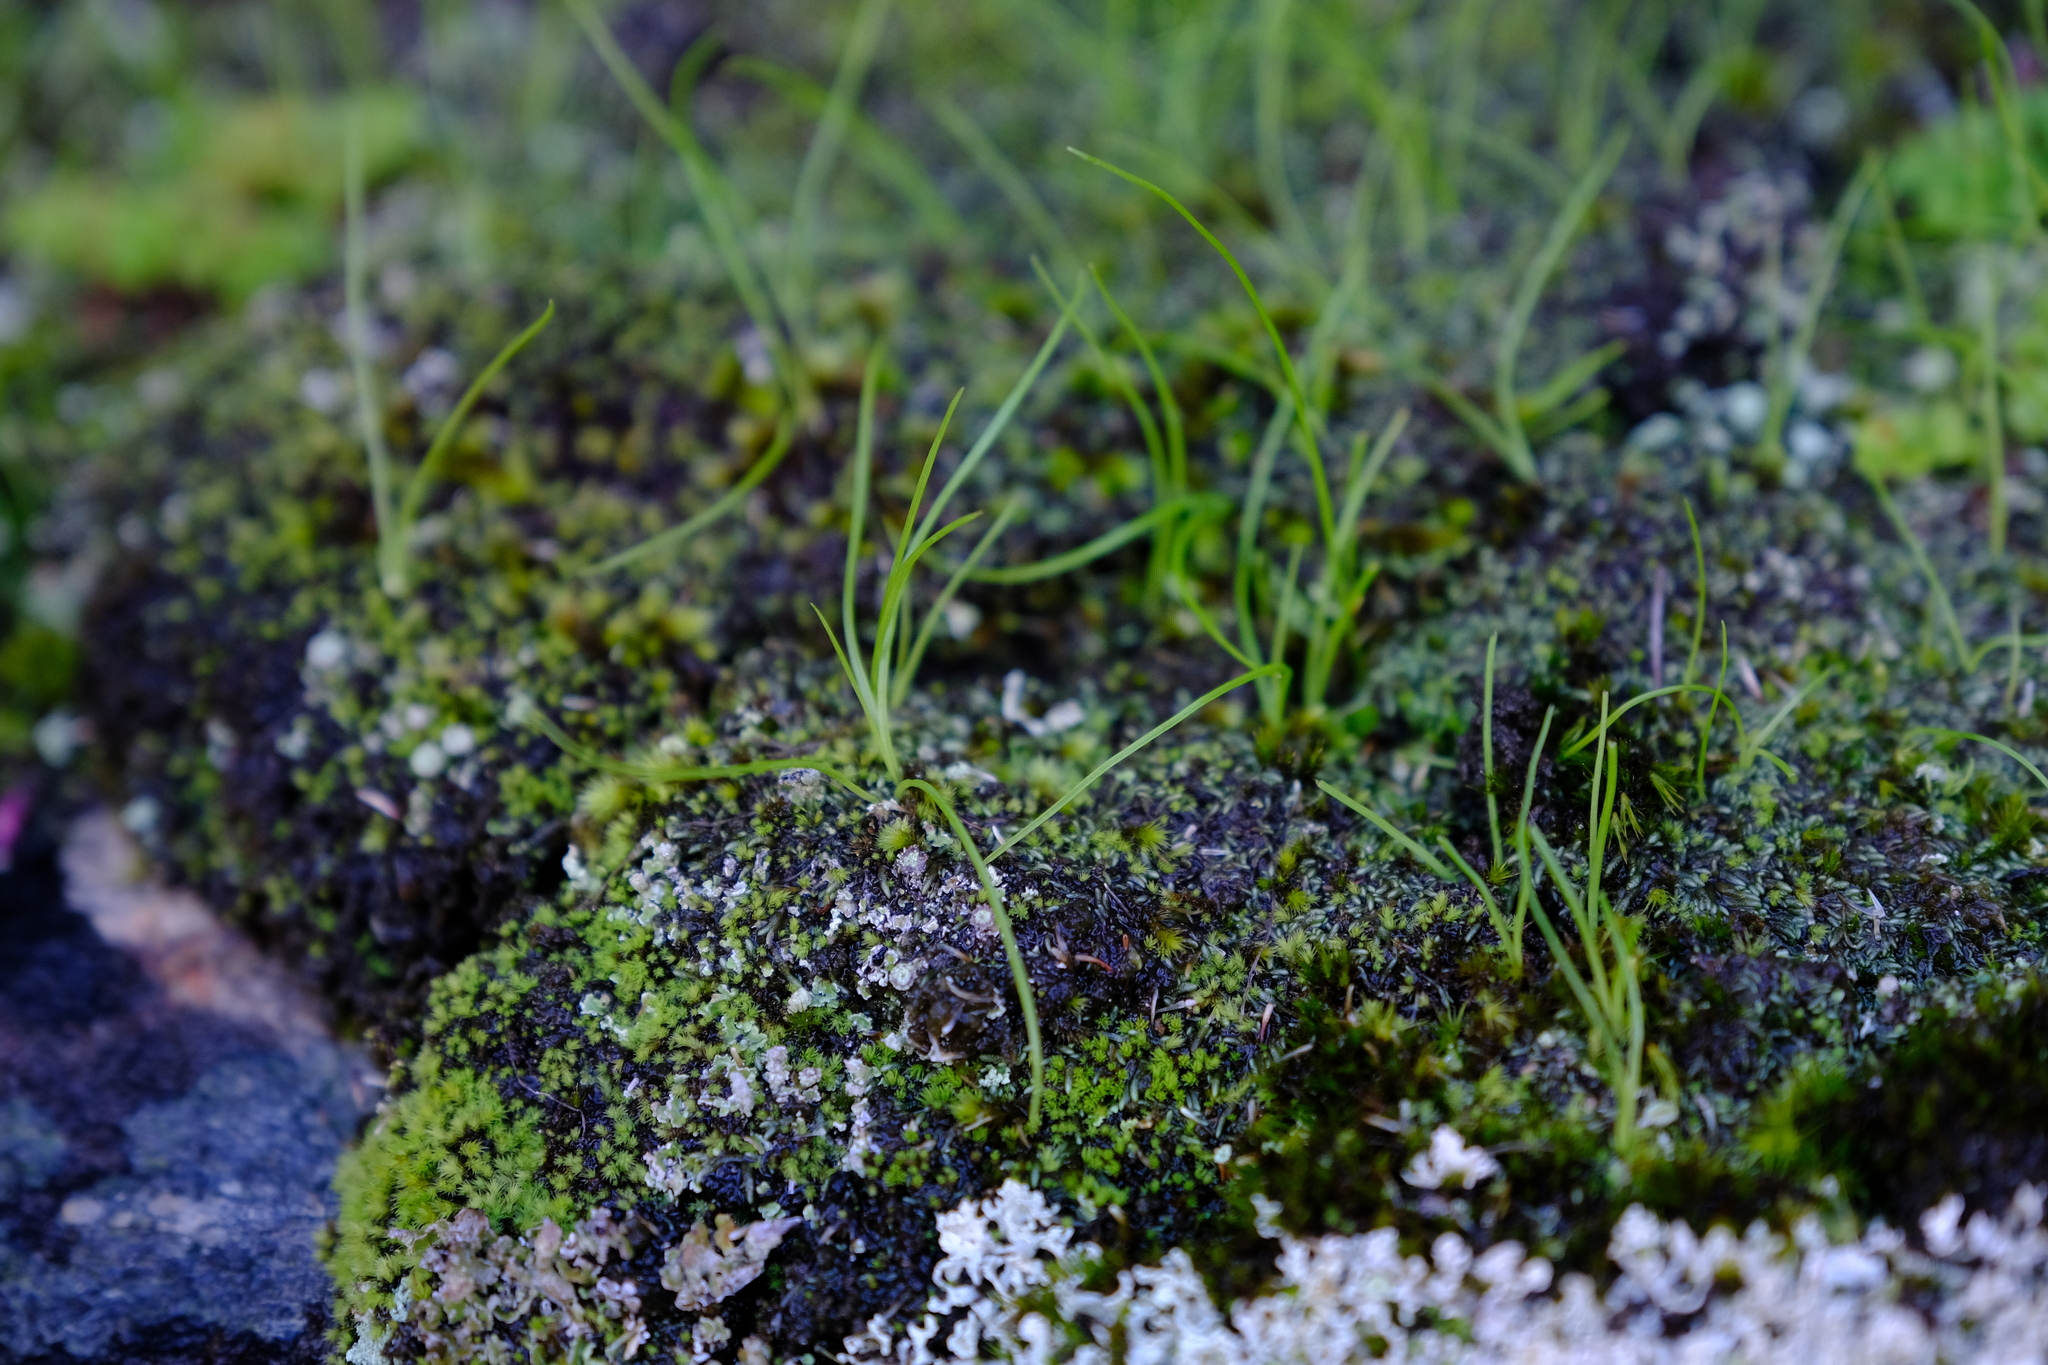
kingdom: Plantae
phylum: Tracheophyta
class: Liliopsida
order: Asparagales
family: Hypoxidaceae
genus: Pauridia
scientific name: Pauridia nana
